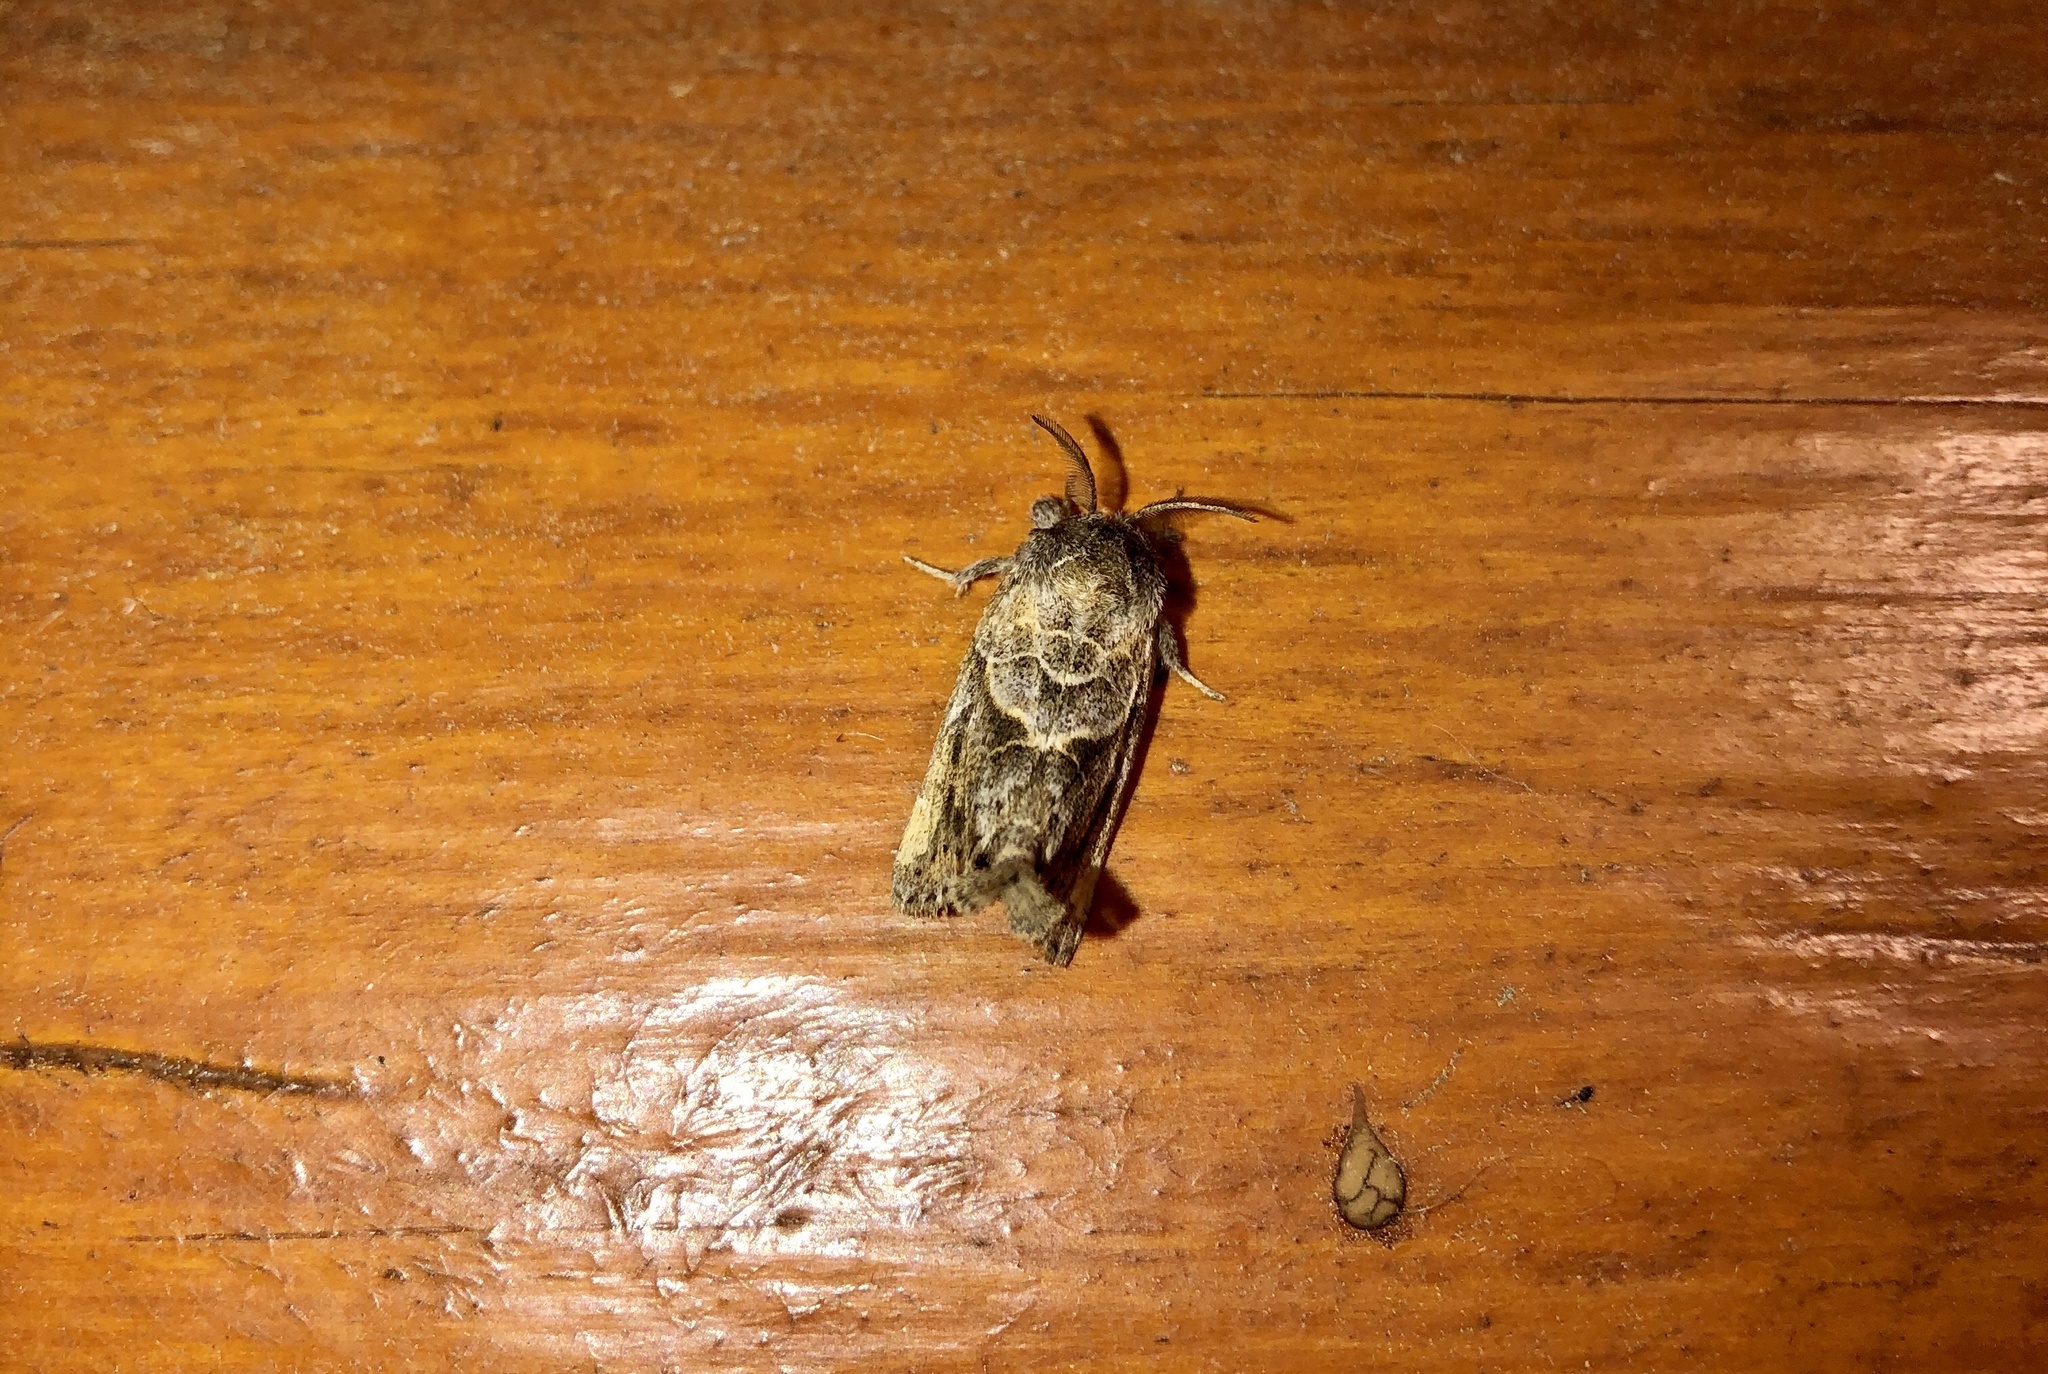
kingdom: Animalia
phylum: Arthropoda
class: Insecta
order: Lepidoptera
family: Notodontidae
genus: Clostera
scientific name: Clostera strigosa
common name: Striped chocolate-tip moth
